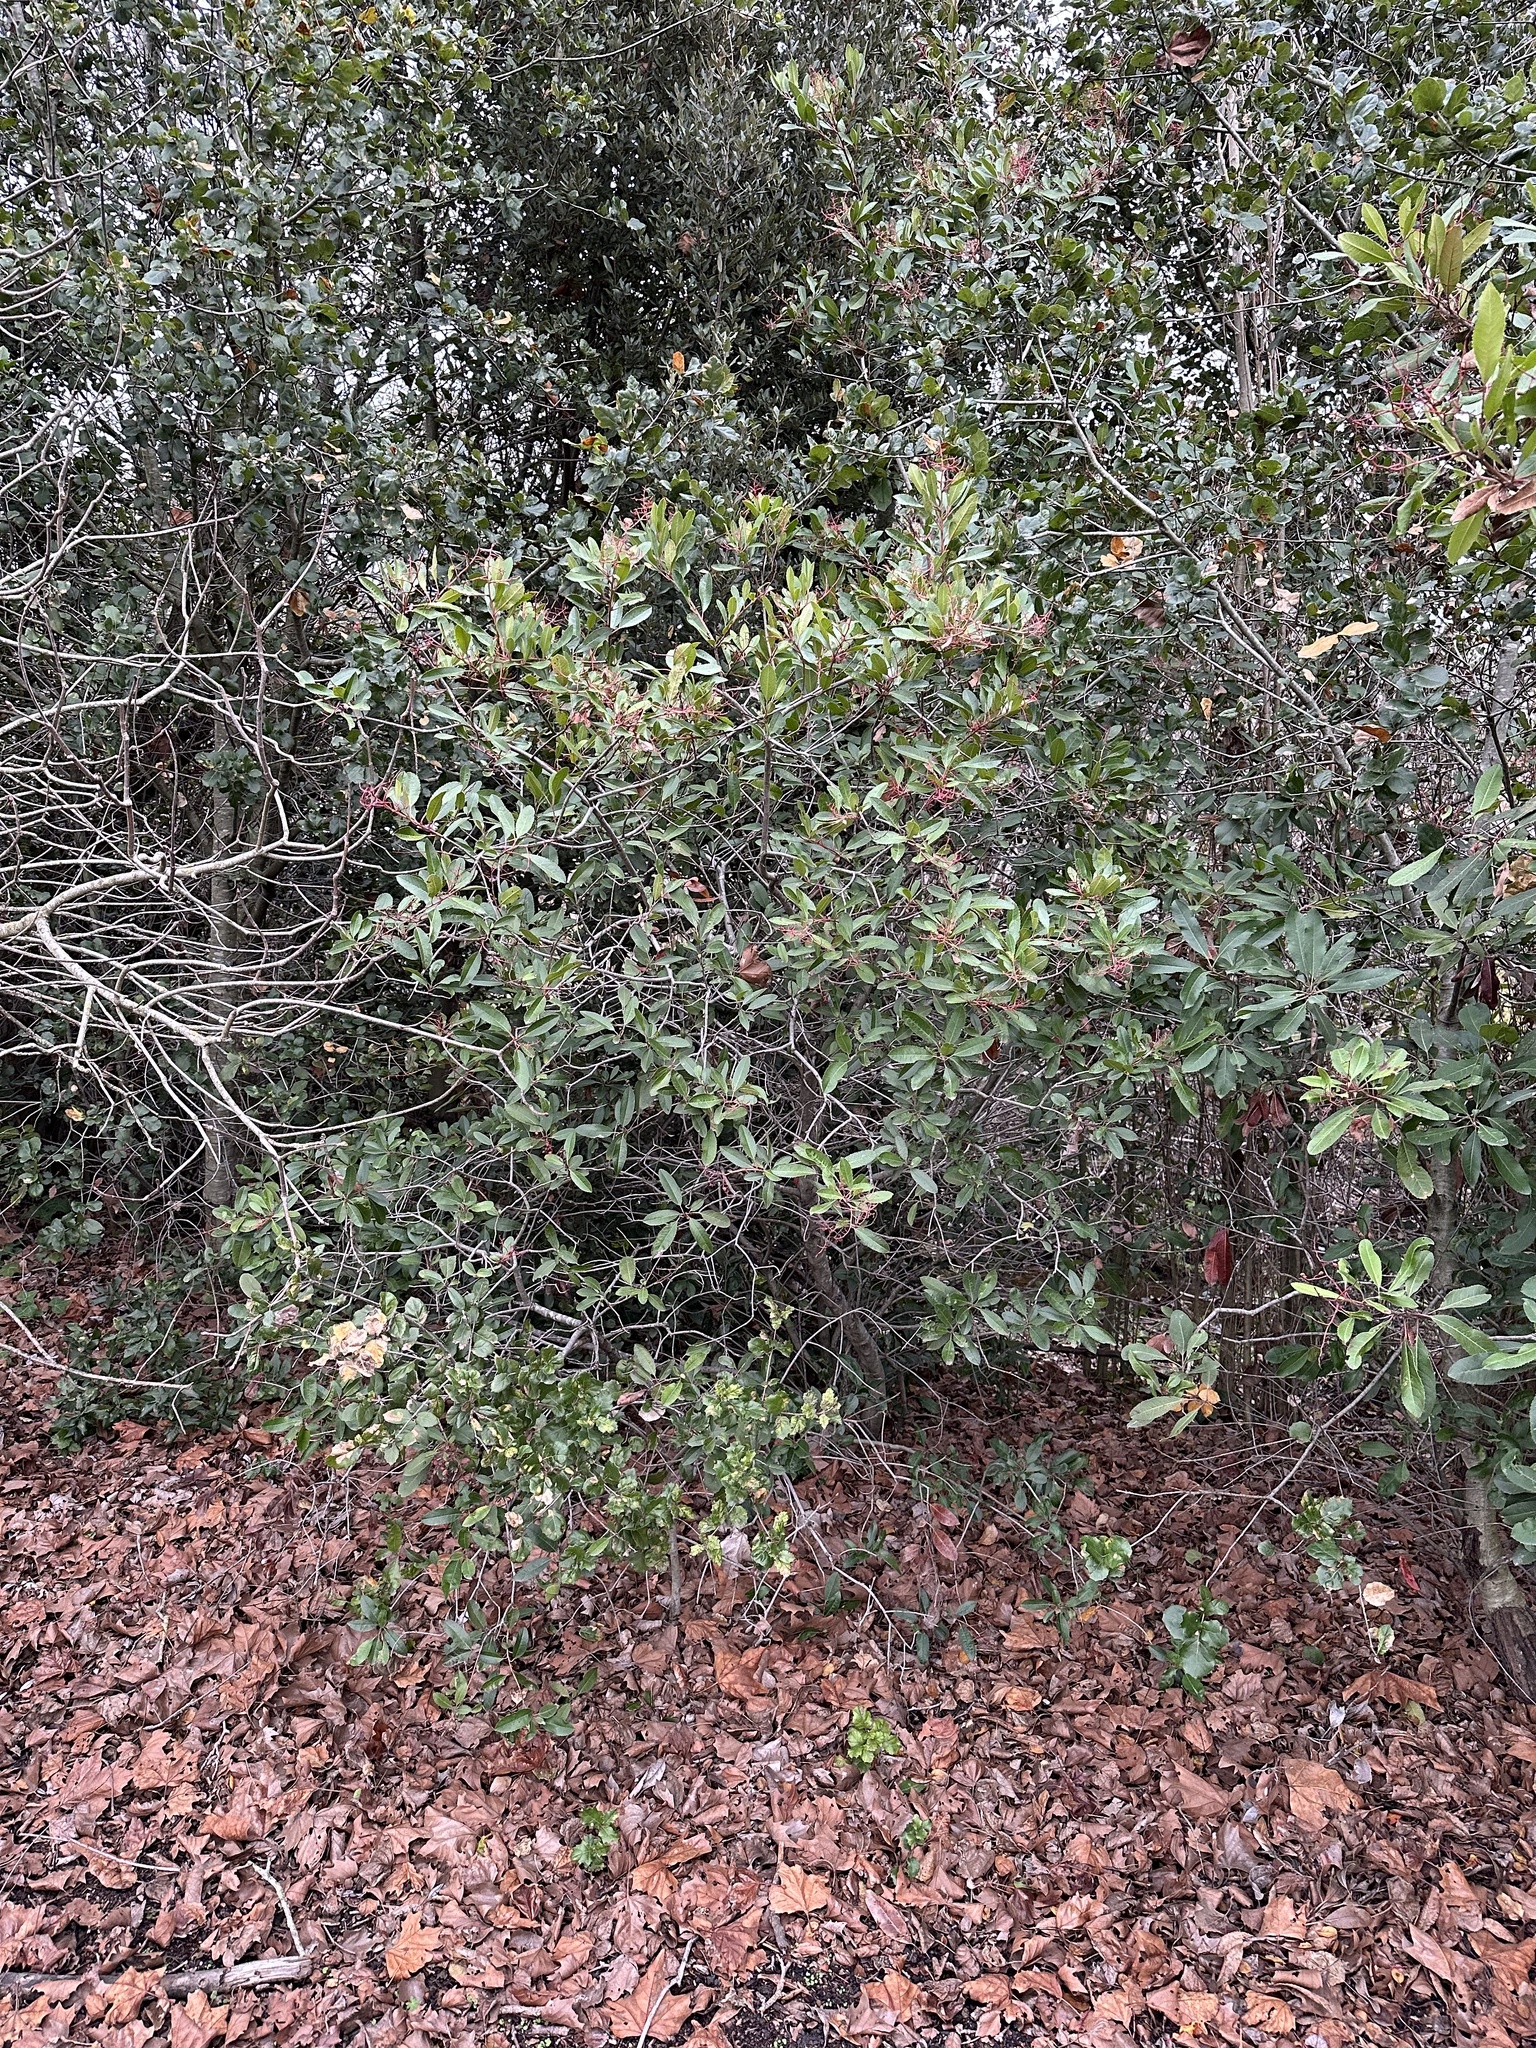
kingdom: Plantae
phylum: Tracheophyta
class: Magnoliopsida
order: Rosales
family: Rosaceae
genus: Heteromeles
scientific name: Heteromeles arbutifolia
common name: California-holly
